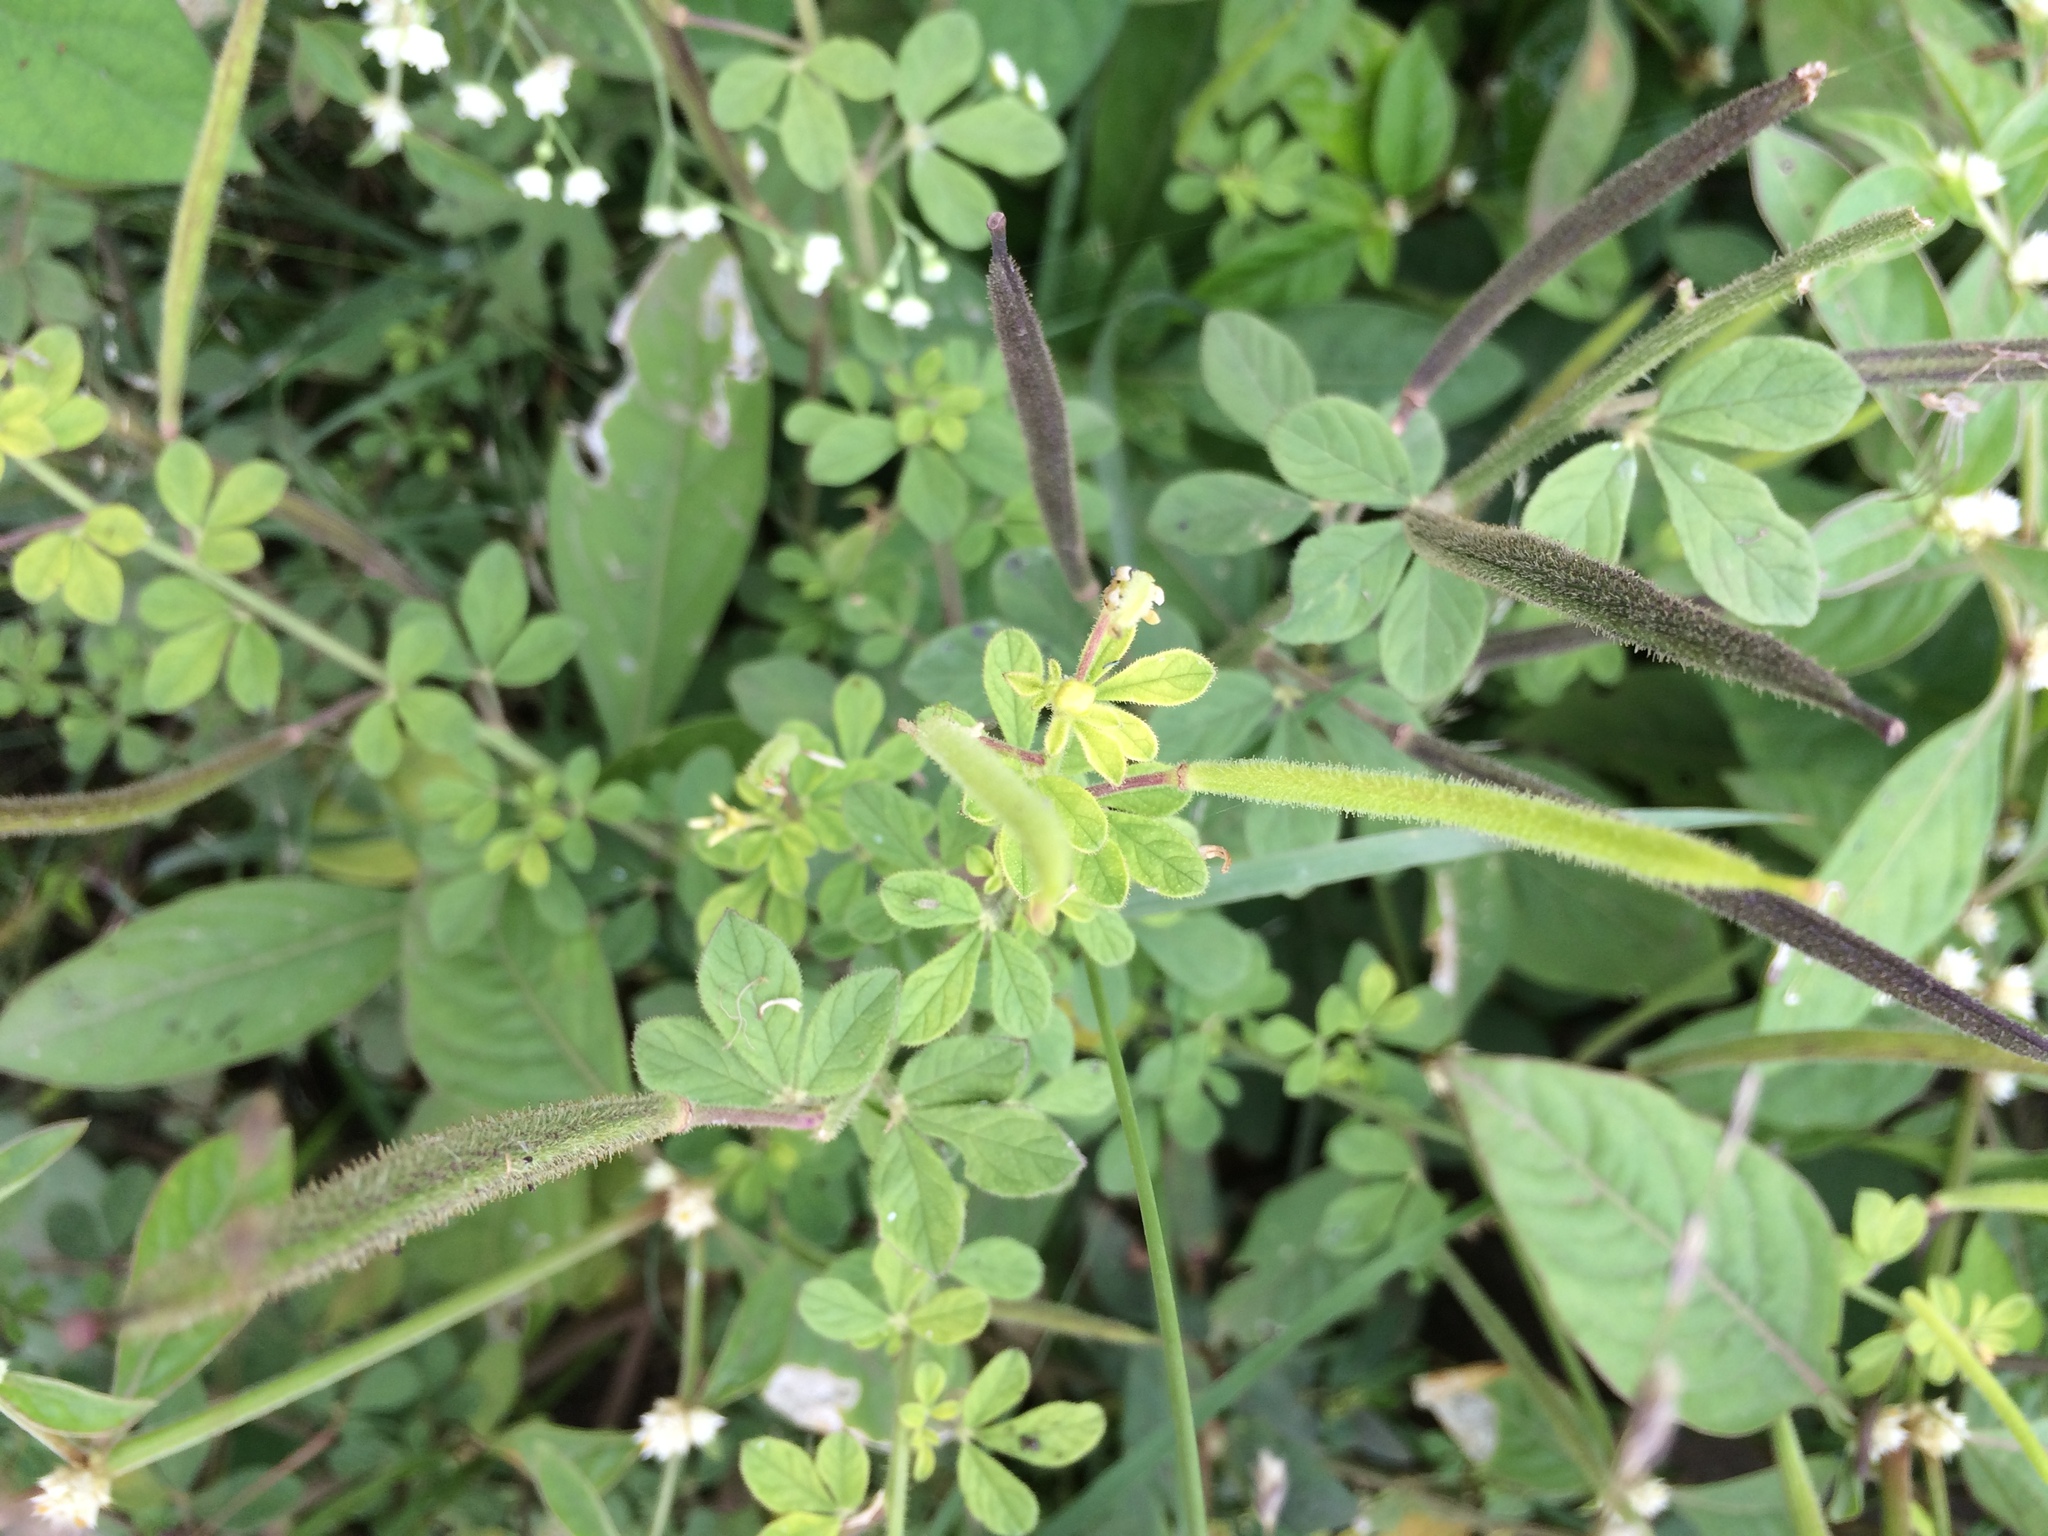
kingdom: Plantae
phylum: Tracheophyta
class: Magnoliopsida
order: Brassicales
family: Cleomaceae
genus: Arivela
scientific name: Arivela viscosa
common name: Asian spiderflower
